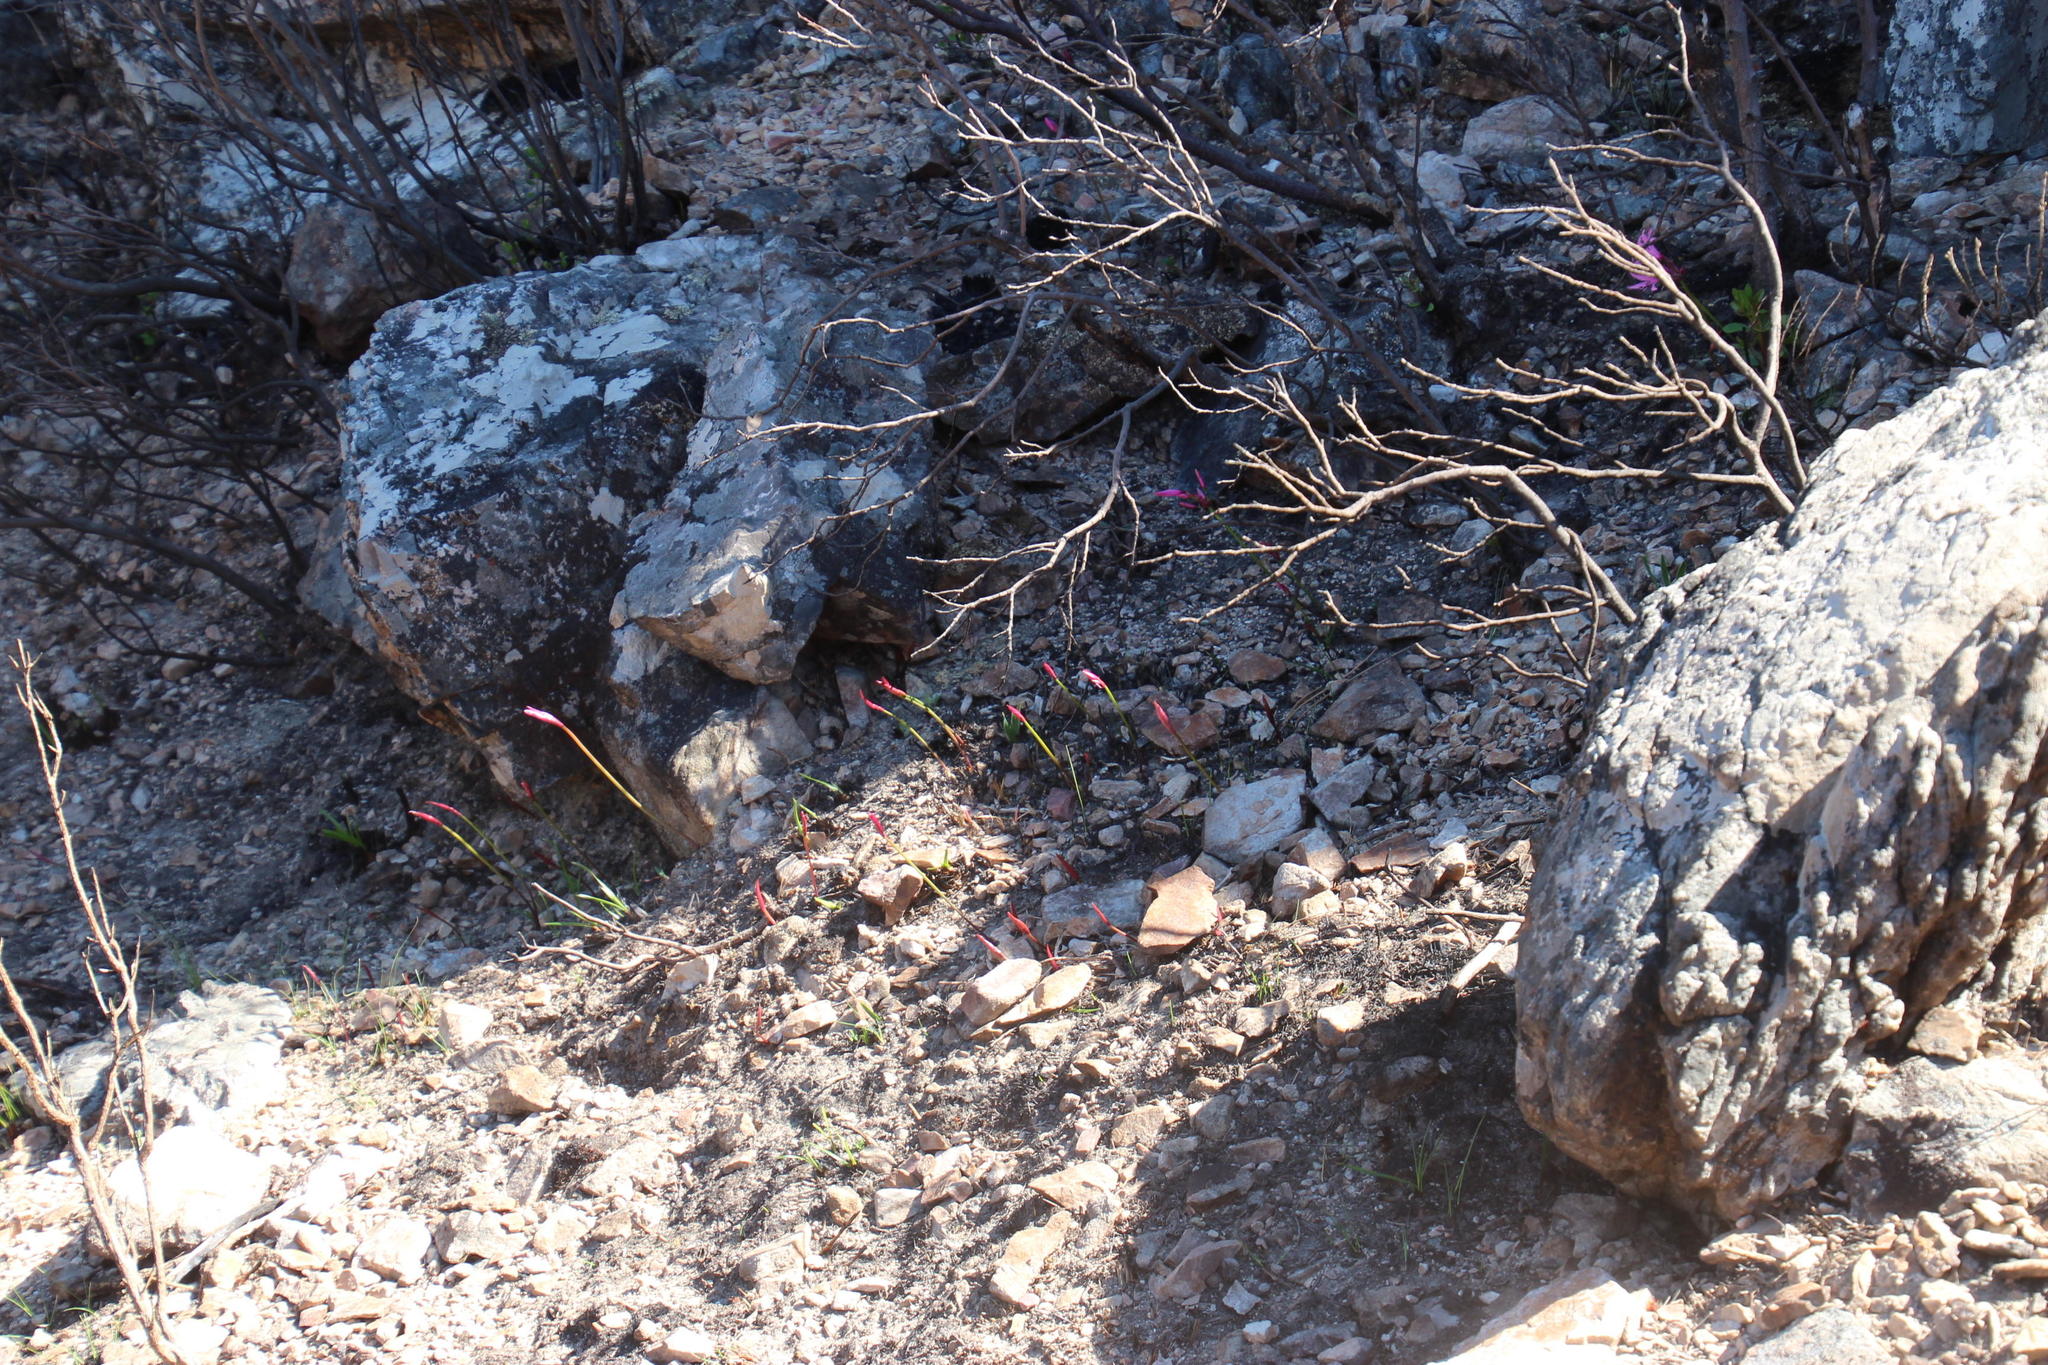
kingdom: Plantae
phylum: Tracheophyta
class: Liliopsida
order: Asparagales
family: Amaryllidaceae
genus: Nerine
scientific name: Nerine humilis
